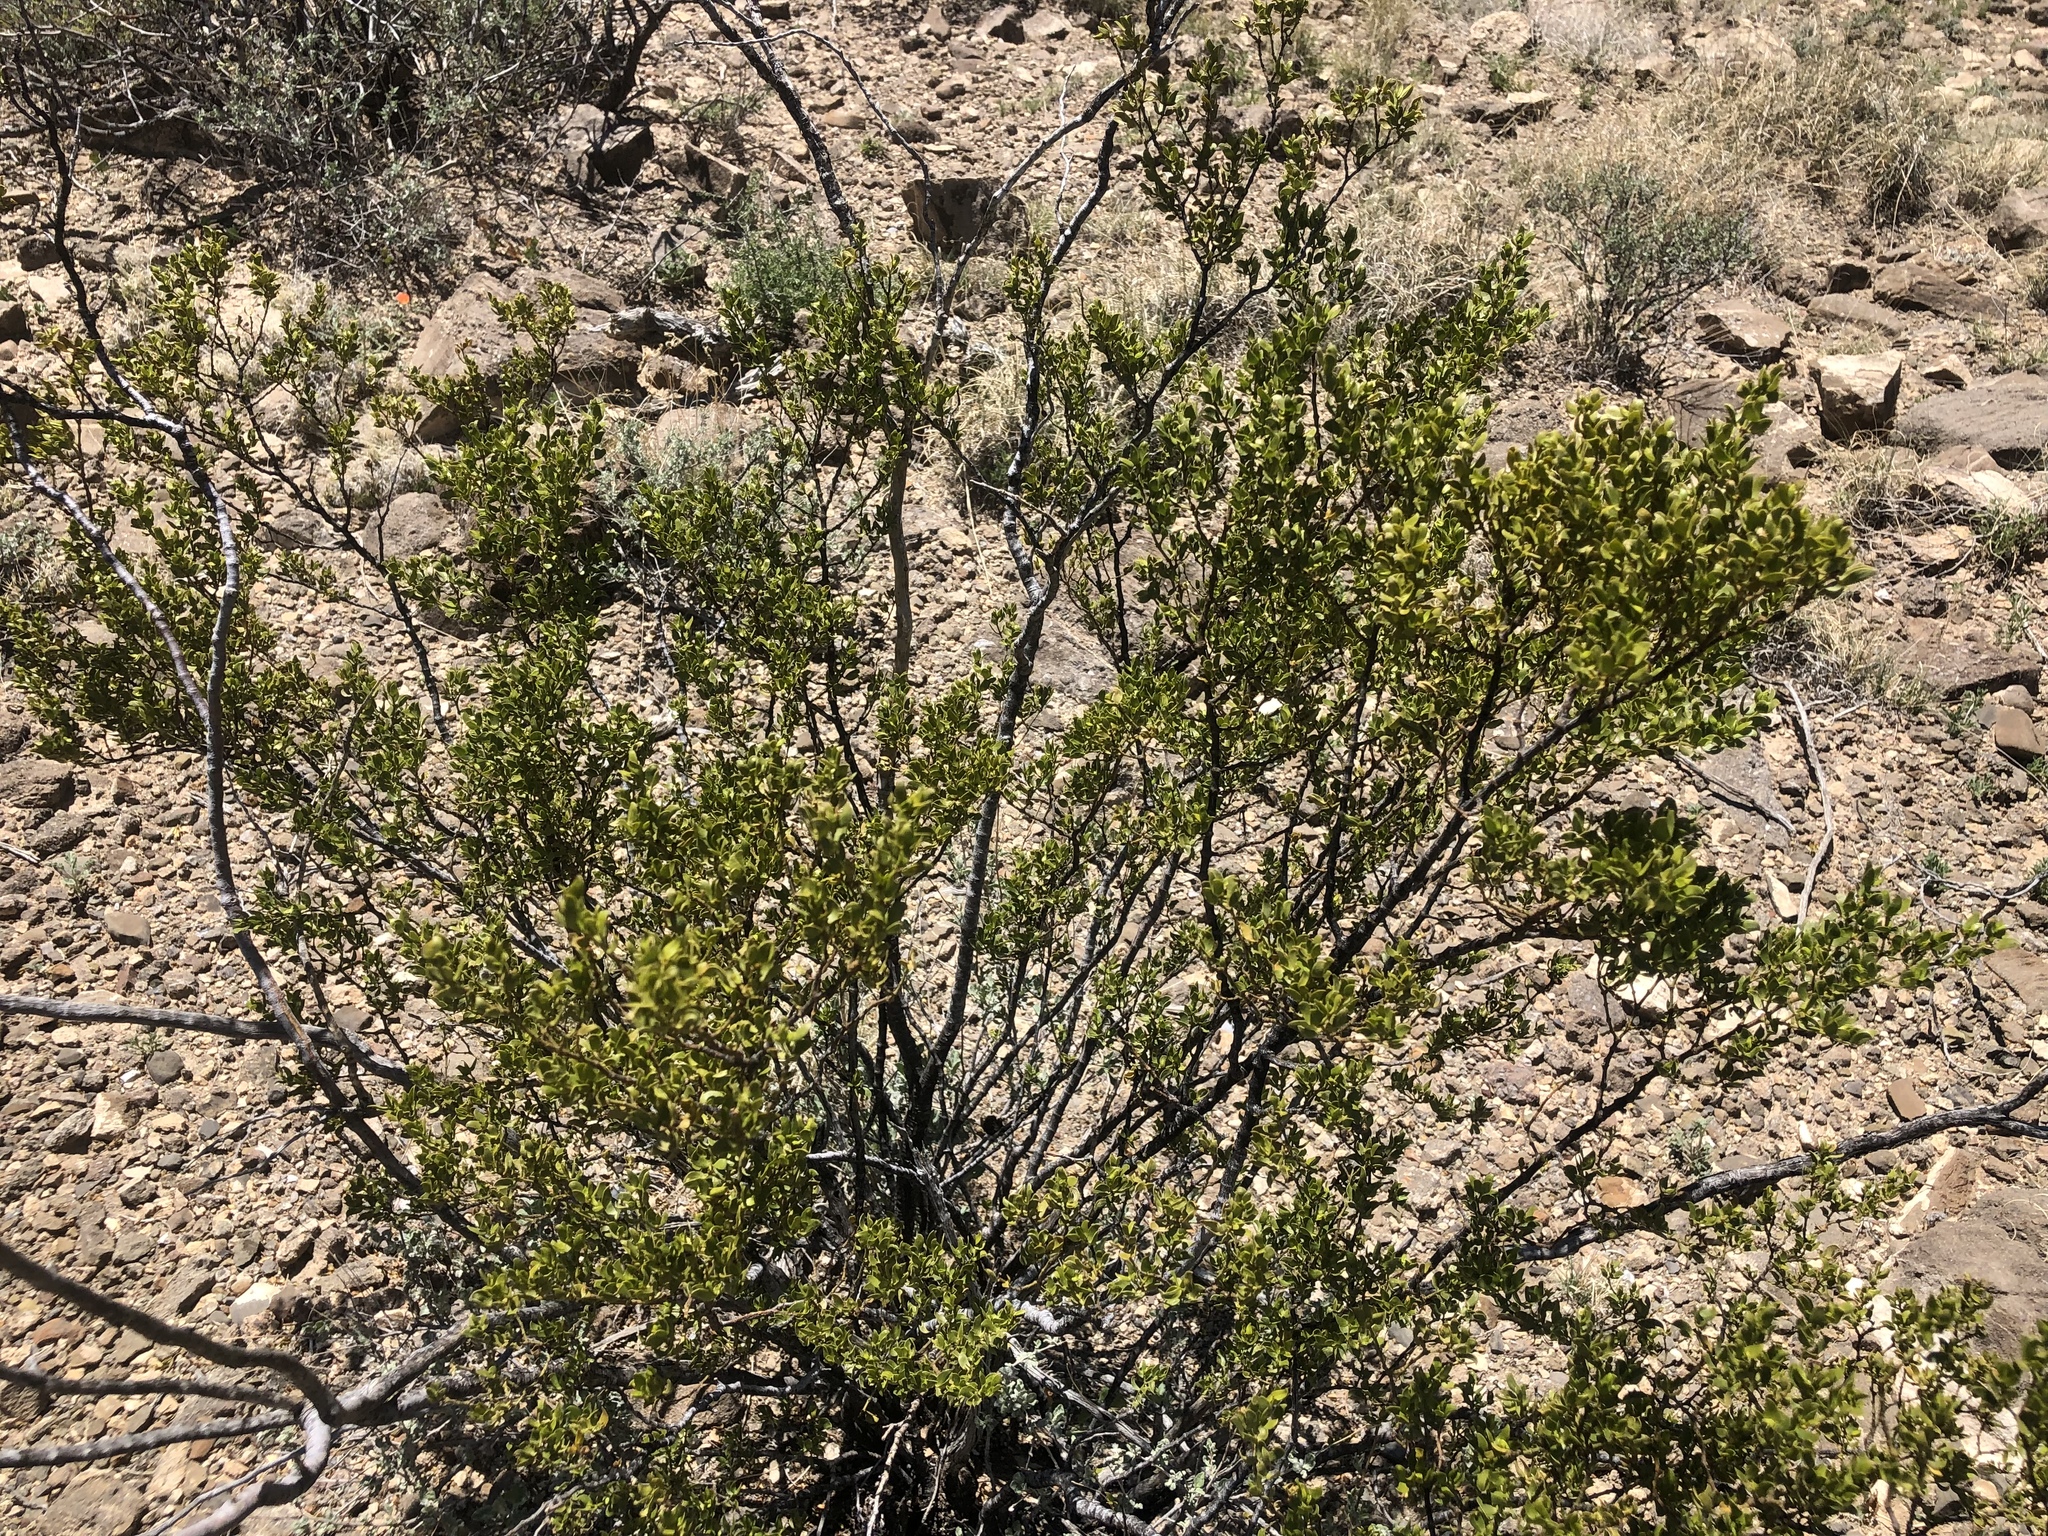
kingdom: Plantae
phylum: Tracheophyta
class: Magnoliopsida
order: Zygophyllales
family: Zygophyllaceae
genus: Larrea
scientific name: Larrea tridentata
